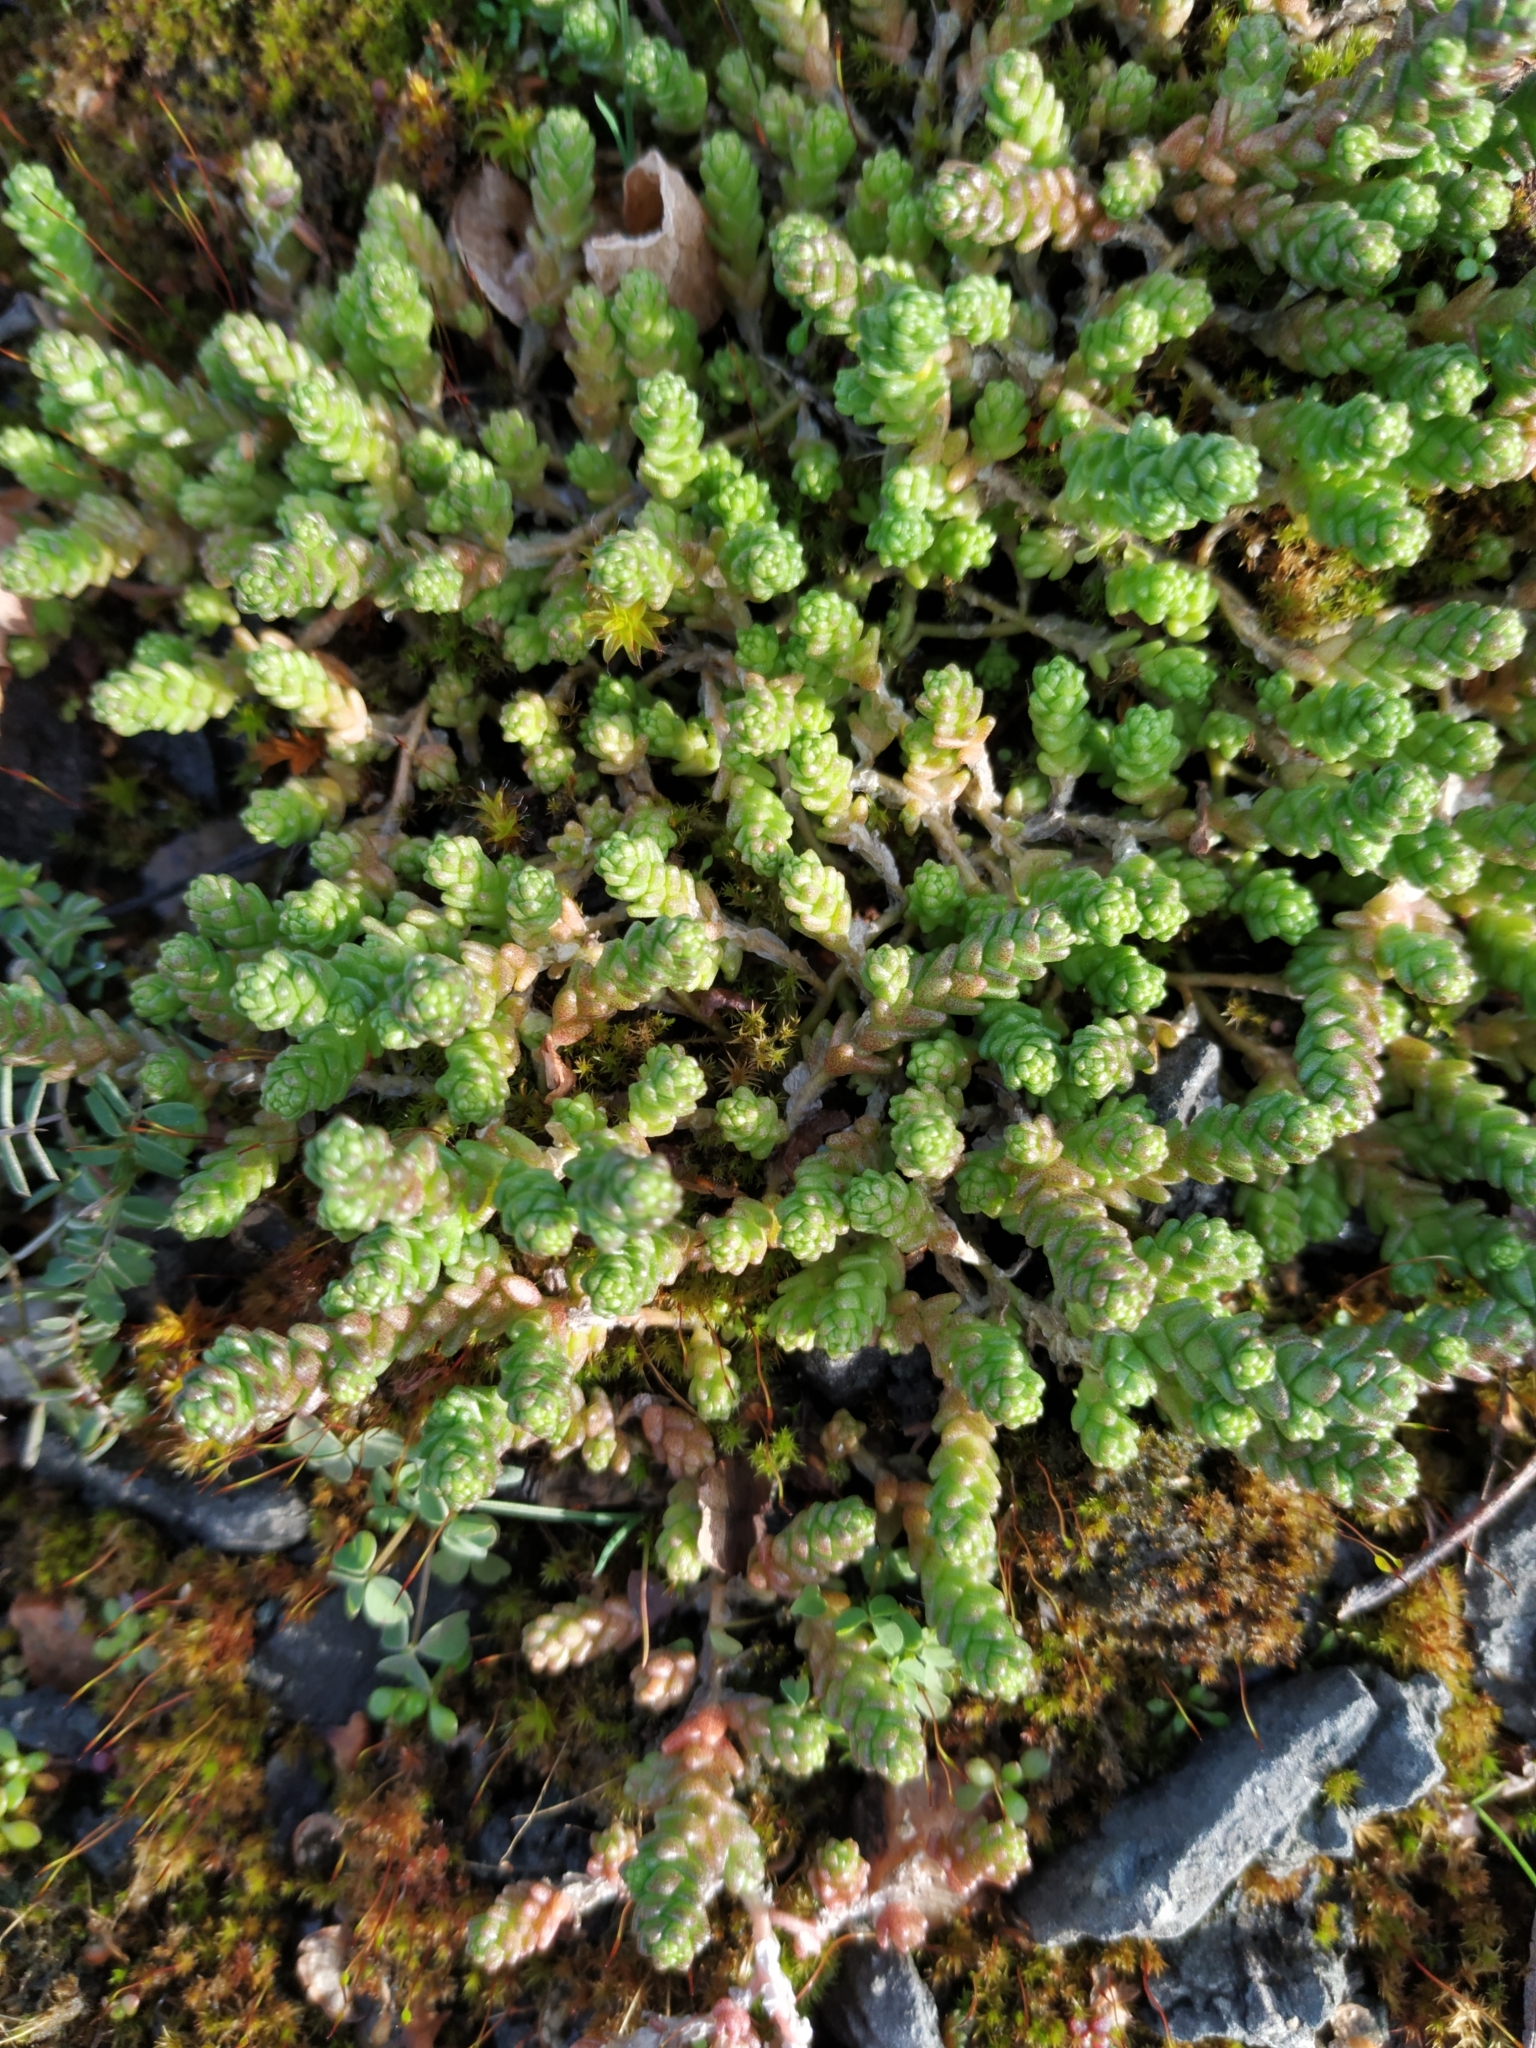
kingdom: Plantae
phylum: Tracheophyta
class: Magnoliopsida
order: Saxifragales
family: Crassulaceae
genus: Sedum
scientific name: Sedum acre
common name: Biting stonecrop
